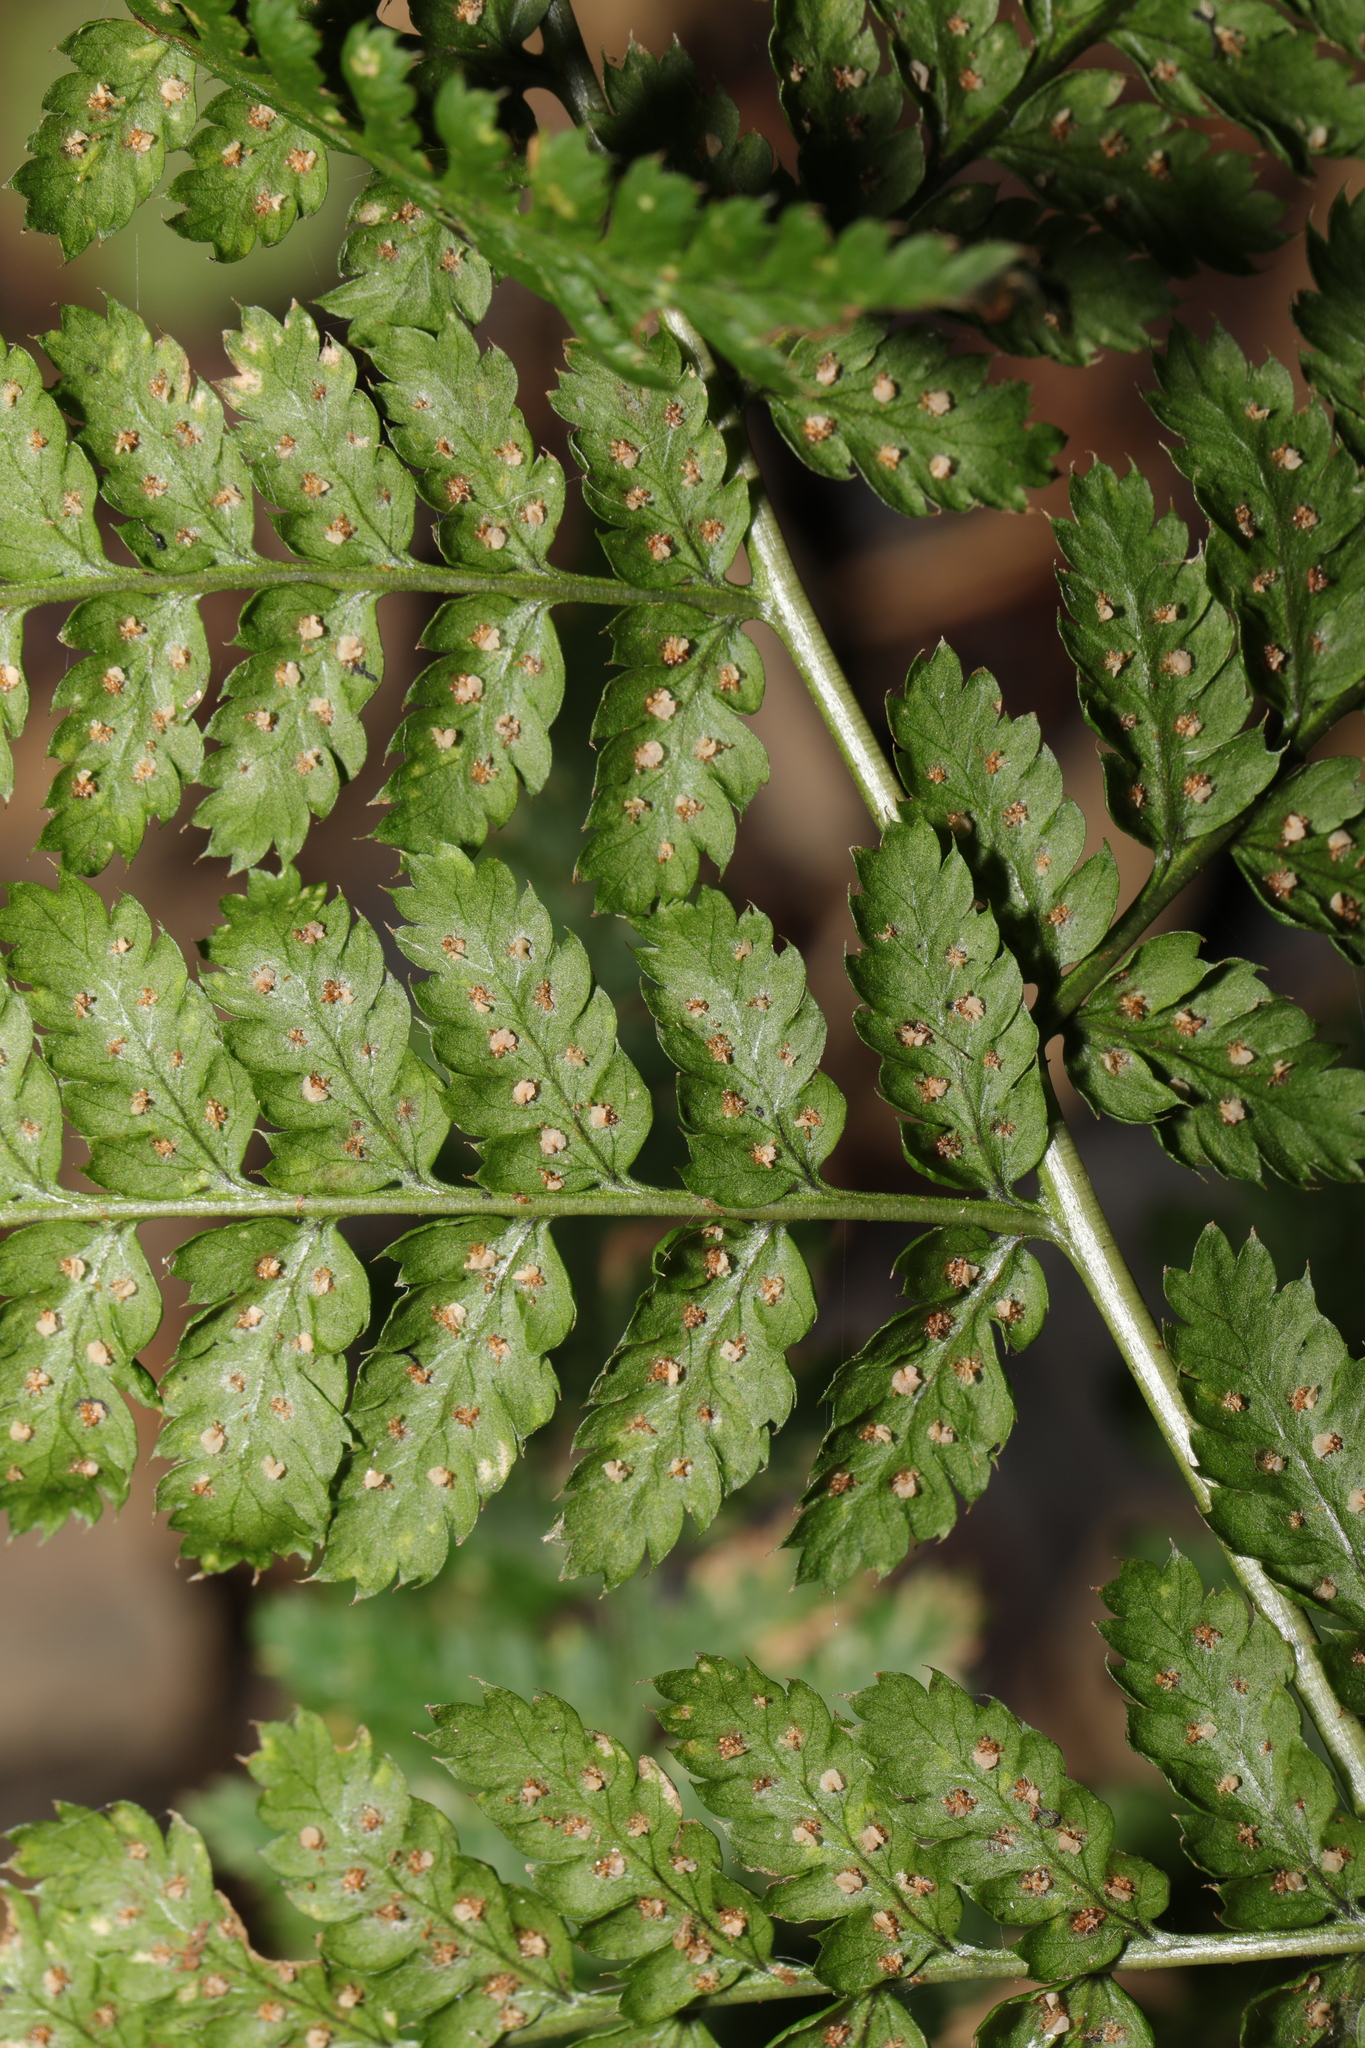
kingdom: Plantae
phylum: Tracheophyta
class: Polypodiopsida
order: Polypodiales
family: Dryopteridaceae
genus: Dryopteris
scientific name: Dryopteris dilatata
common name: Broad buckler-fern
